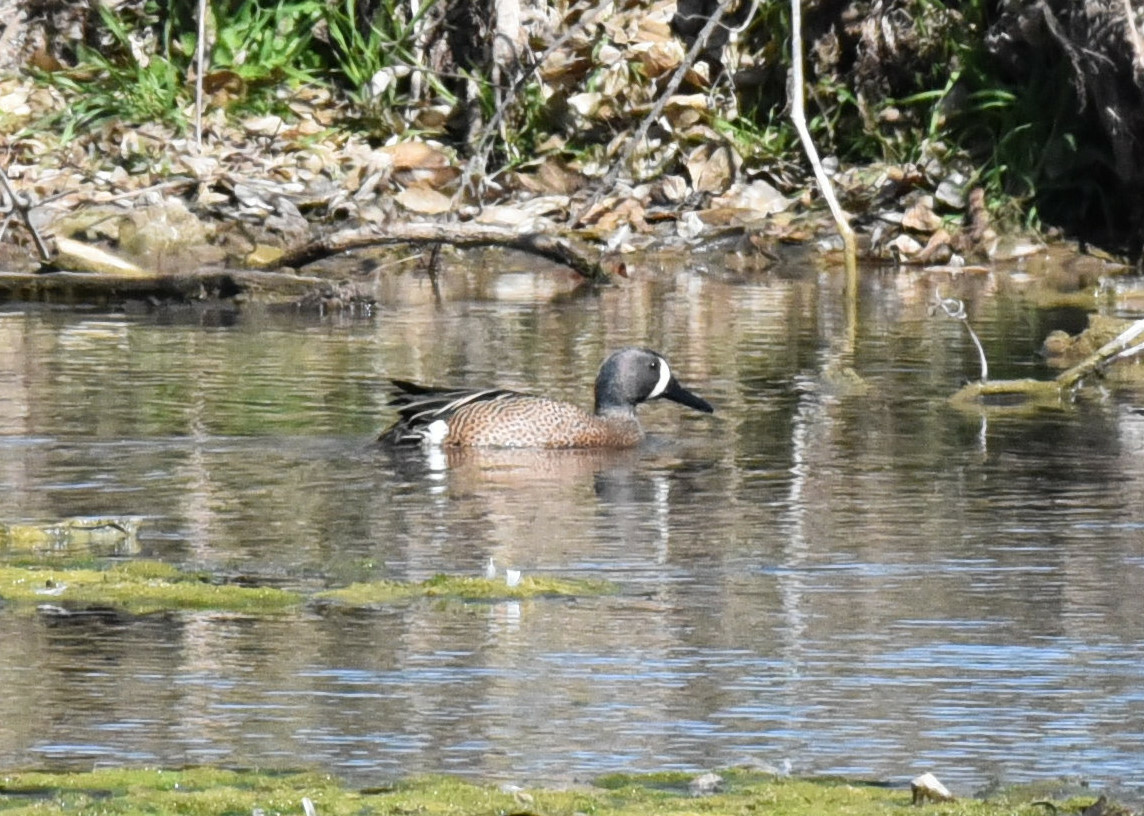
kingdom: Animalia
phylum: Chordata
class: Aves
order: Anseriformes
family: Anatidae
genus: Spatula
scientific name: Spatula discors
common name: Blue-winged teal
